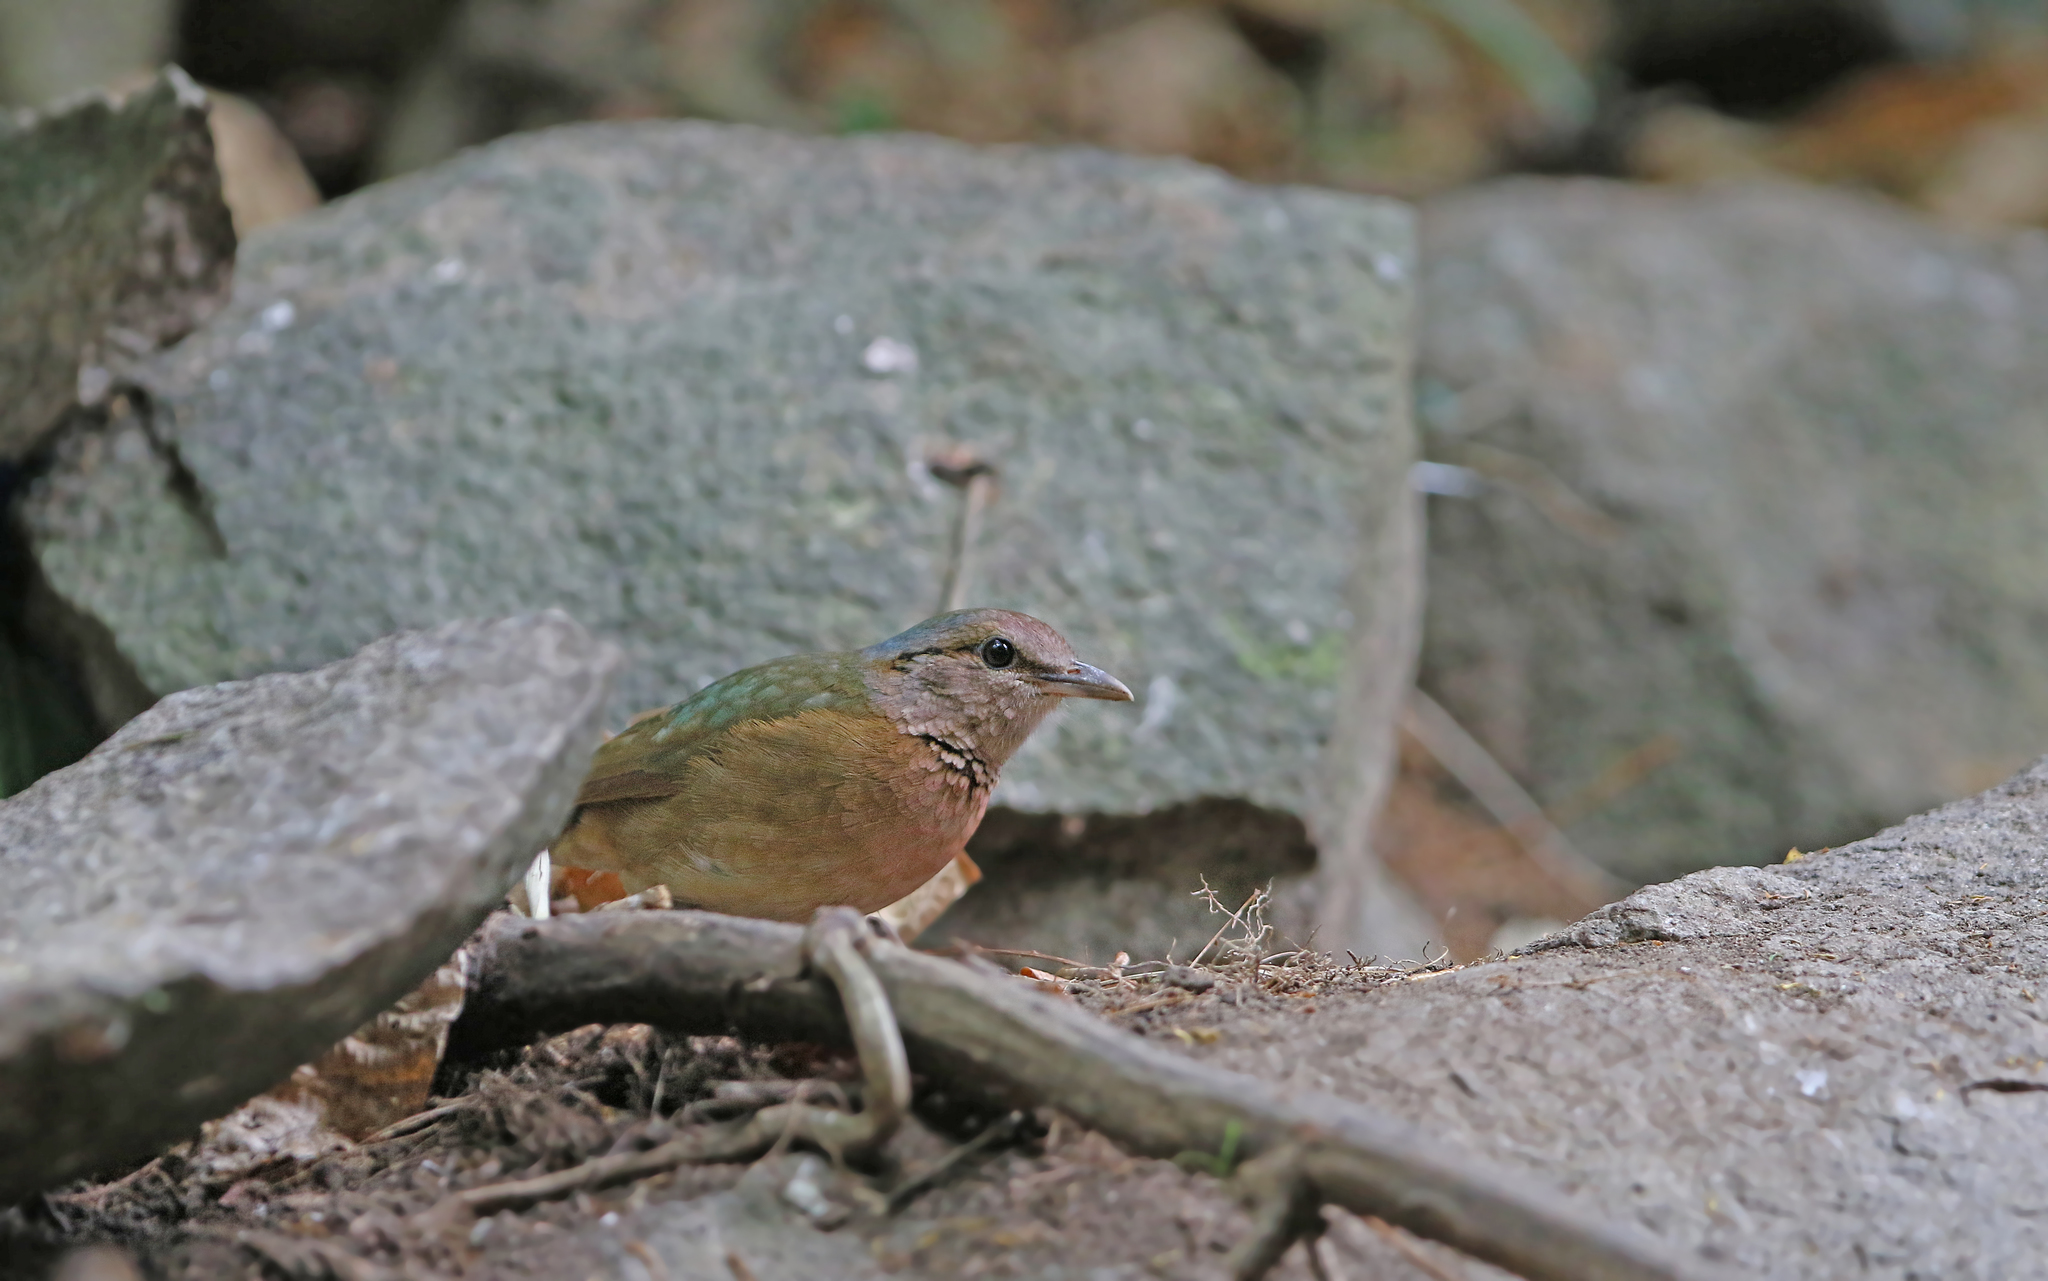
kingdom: Animalia
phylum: Chordata
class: Aves
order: Passeriformes
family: Pittidae
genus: Pitta
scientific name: Pitta soror
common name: Blue-rumped pitta
